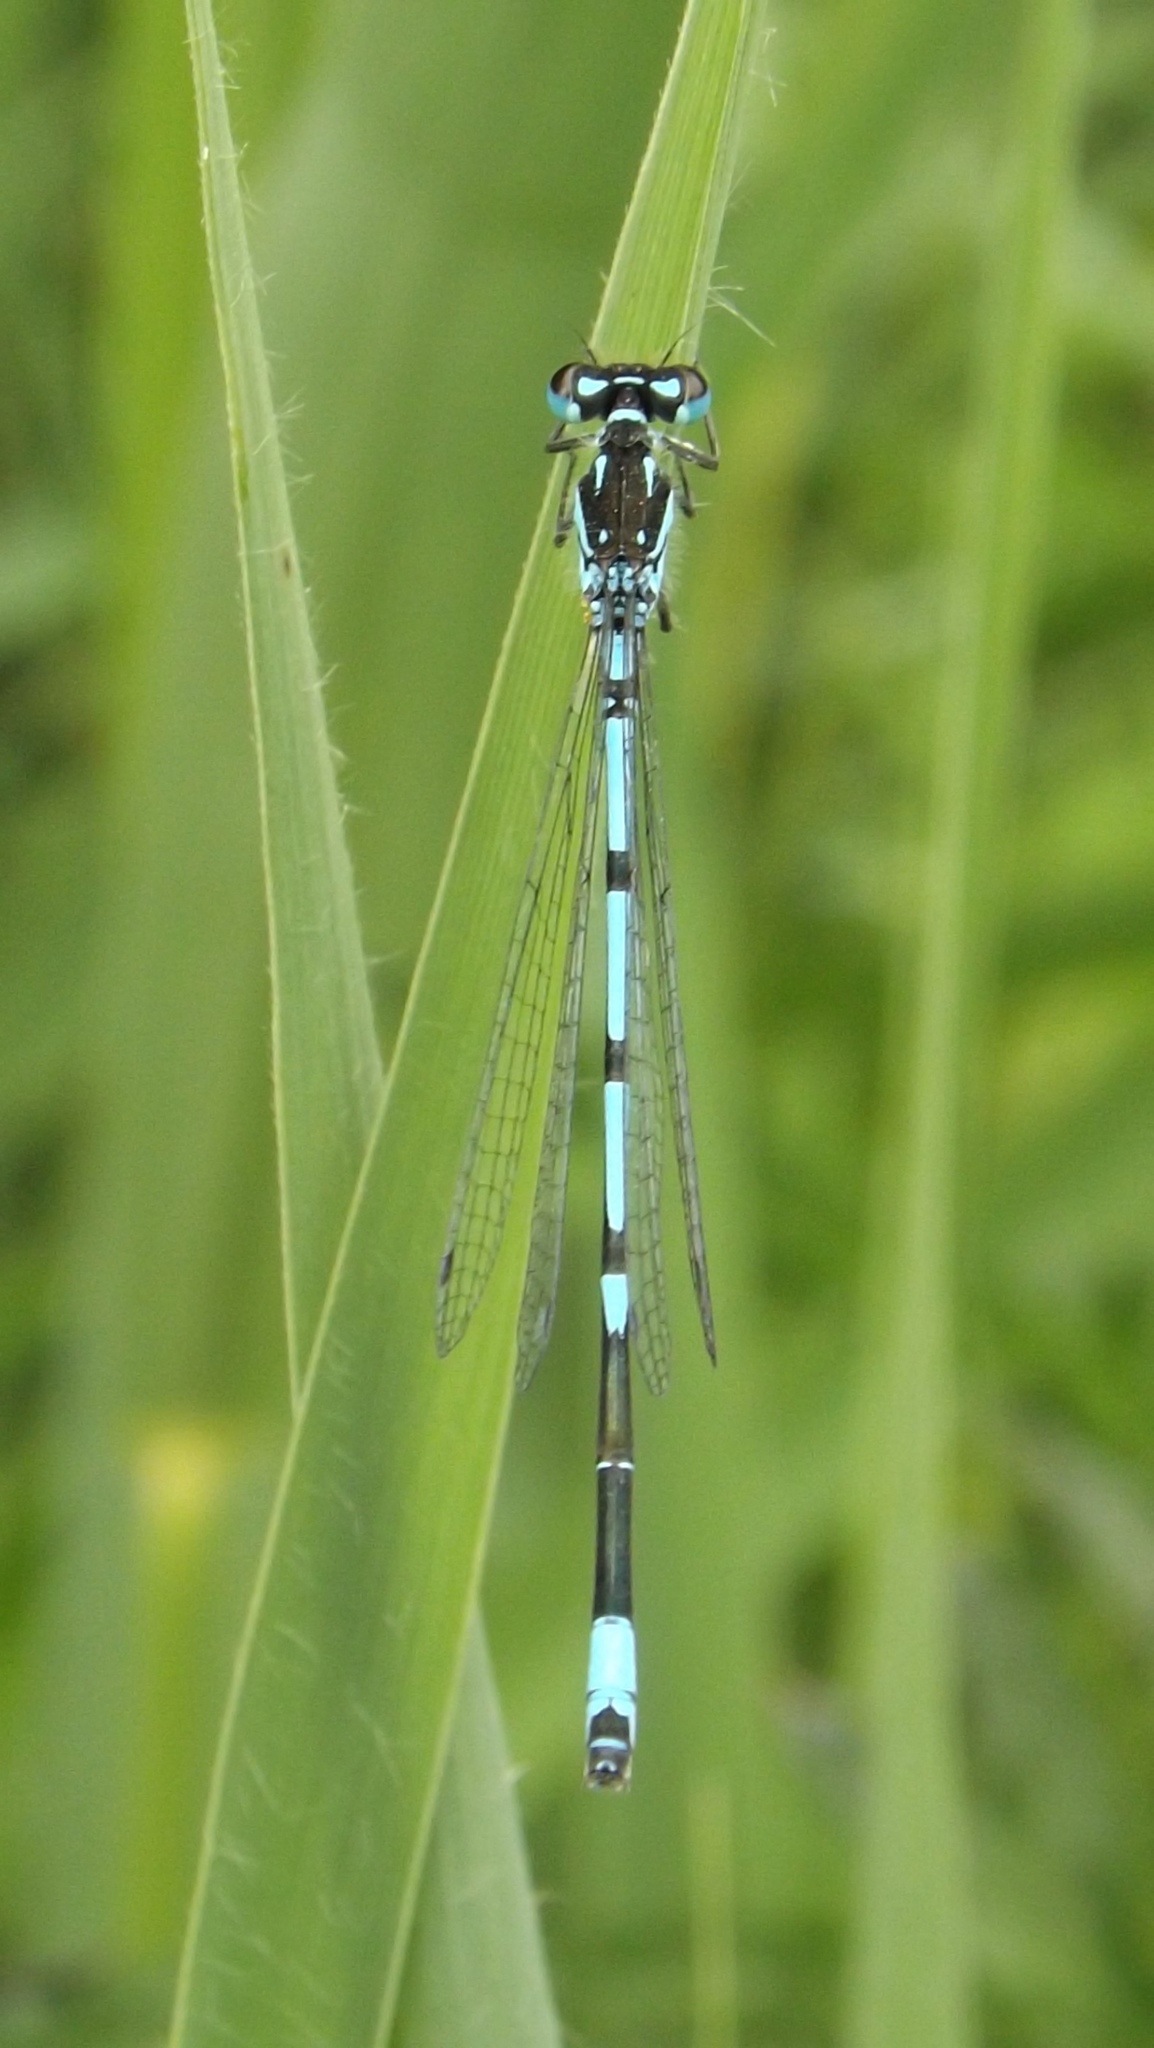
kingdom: Animalia
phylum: Arthropoda
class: Insecta
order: Odonata
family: Coenagrionidae
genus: Coenagrion
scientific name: Coenagrion pulchellum
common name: Variable bluet
